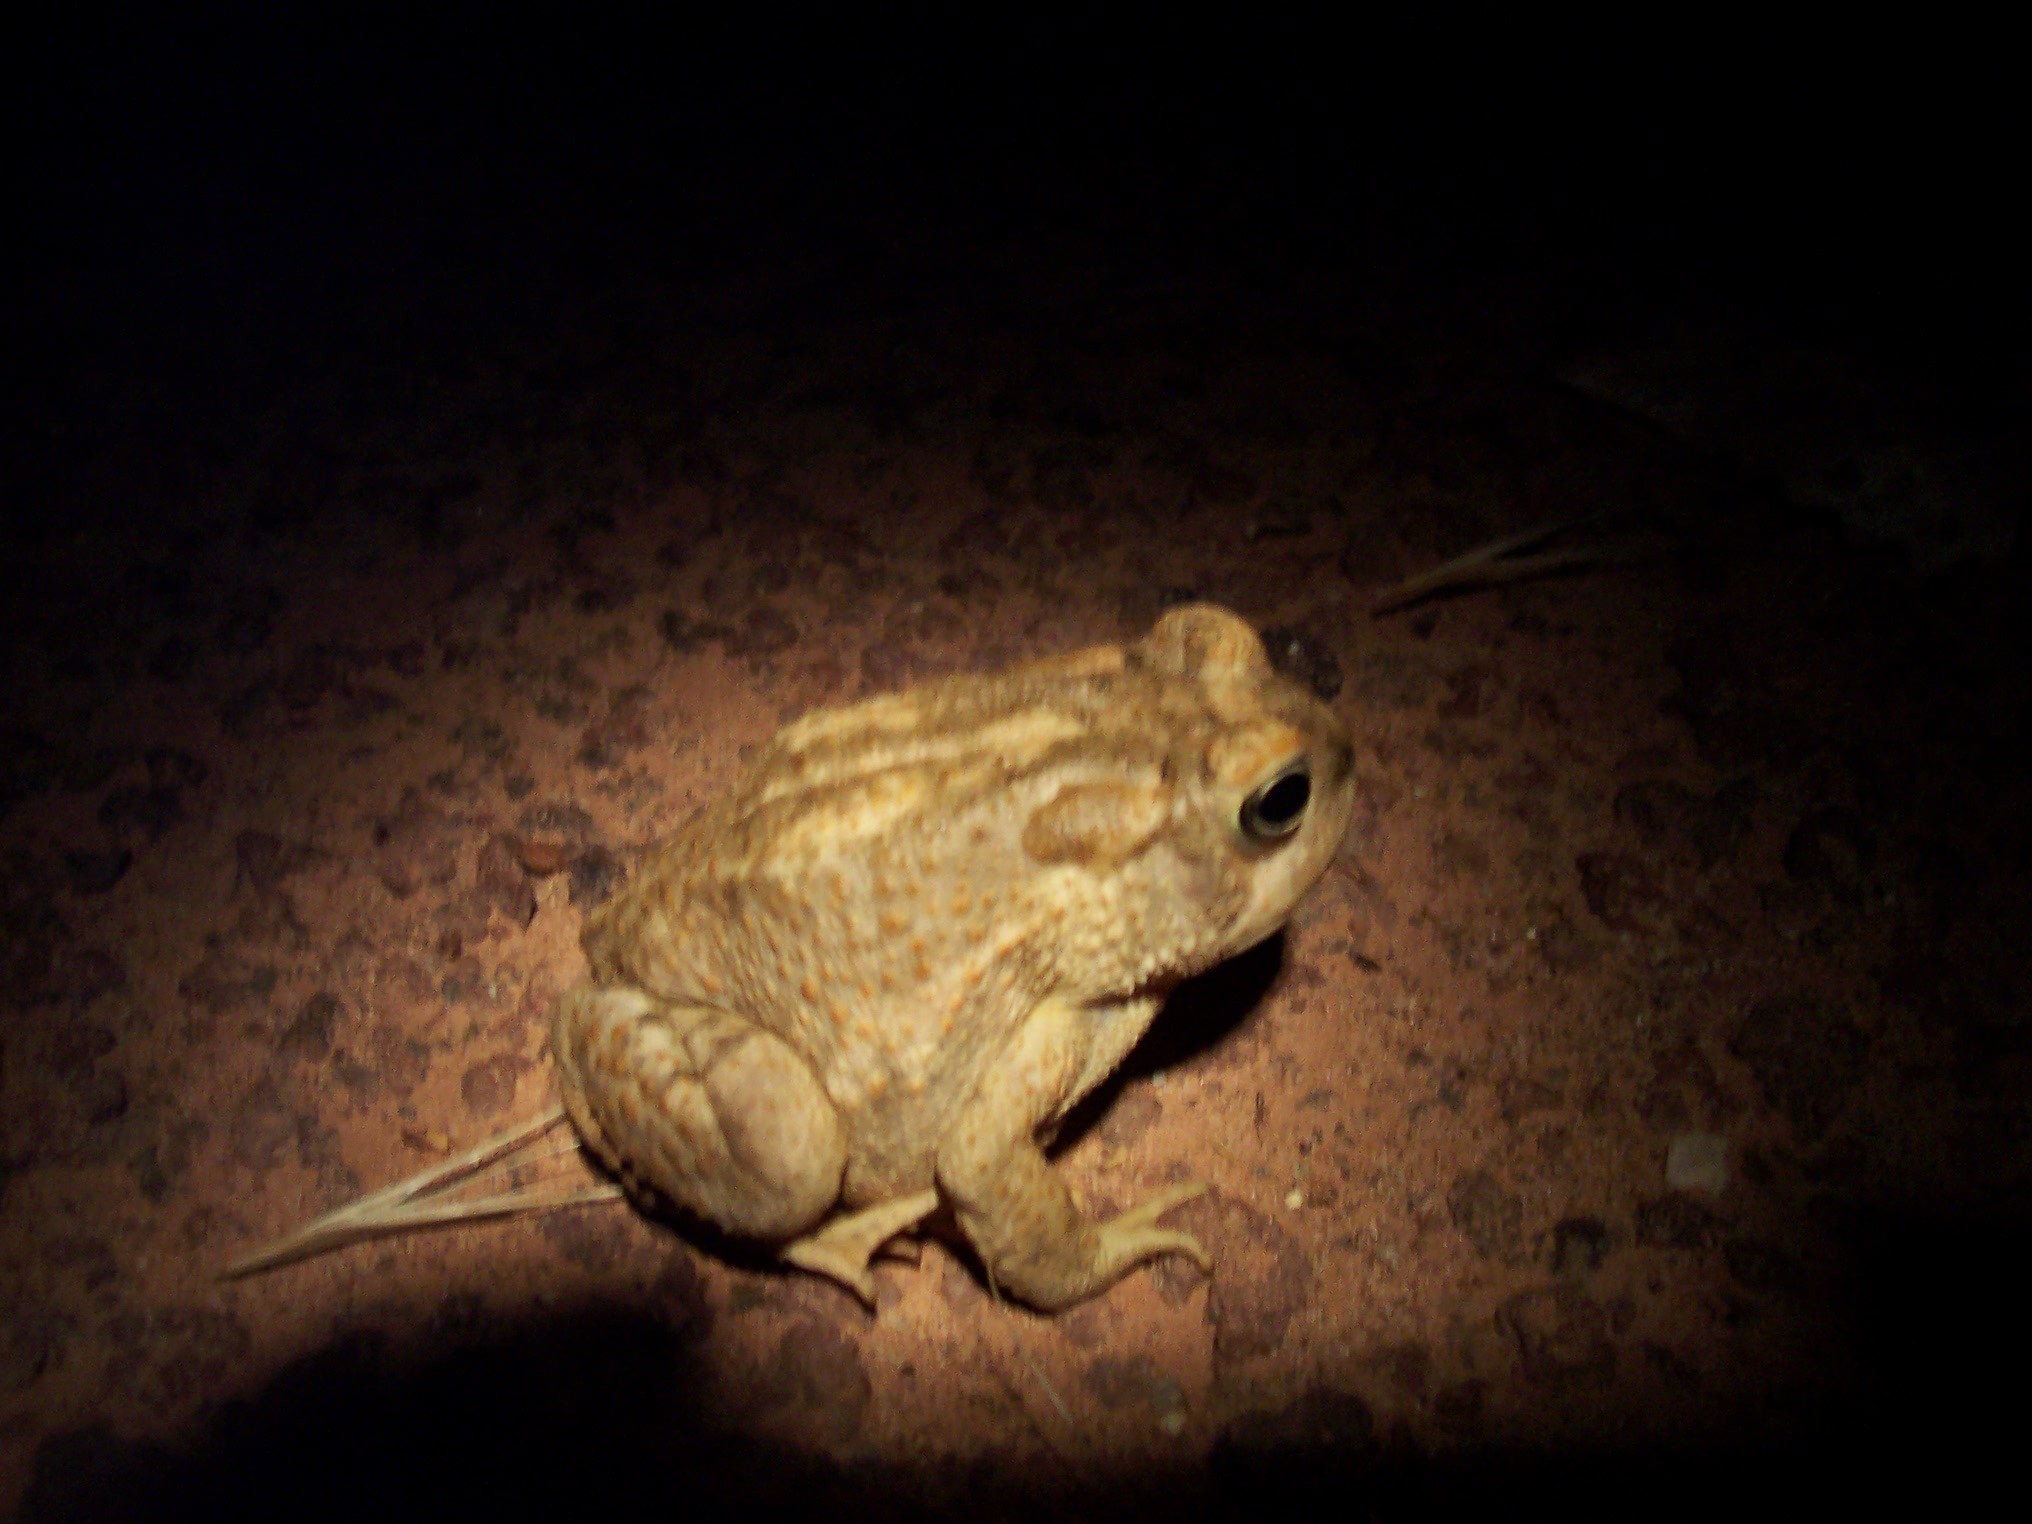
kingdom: Animalia
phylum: Chordata
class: Amphibia
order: Anura
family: Bufonidae
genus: Anaxyrus
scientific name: Anaxyrus microscaphus
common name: Arizona toad
